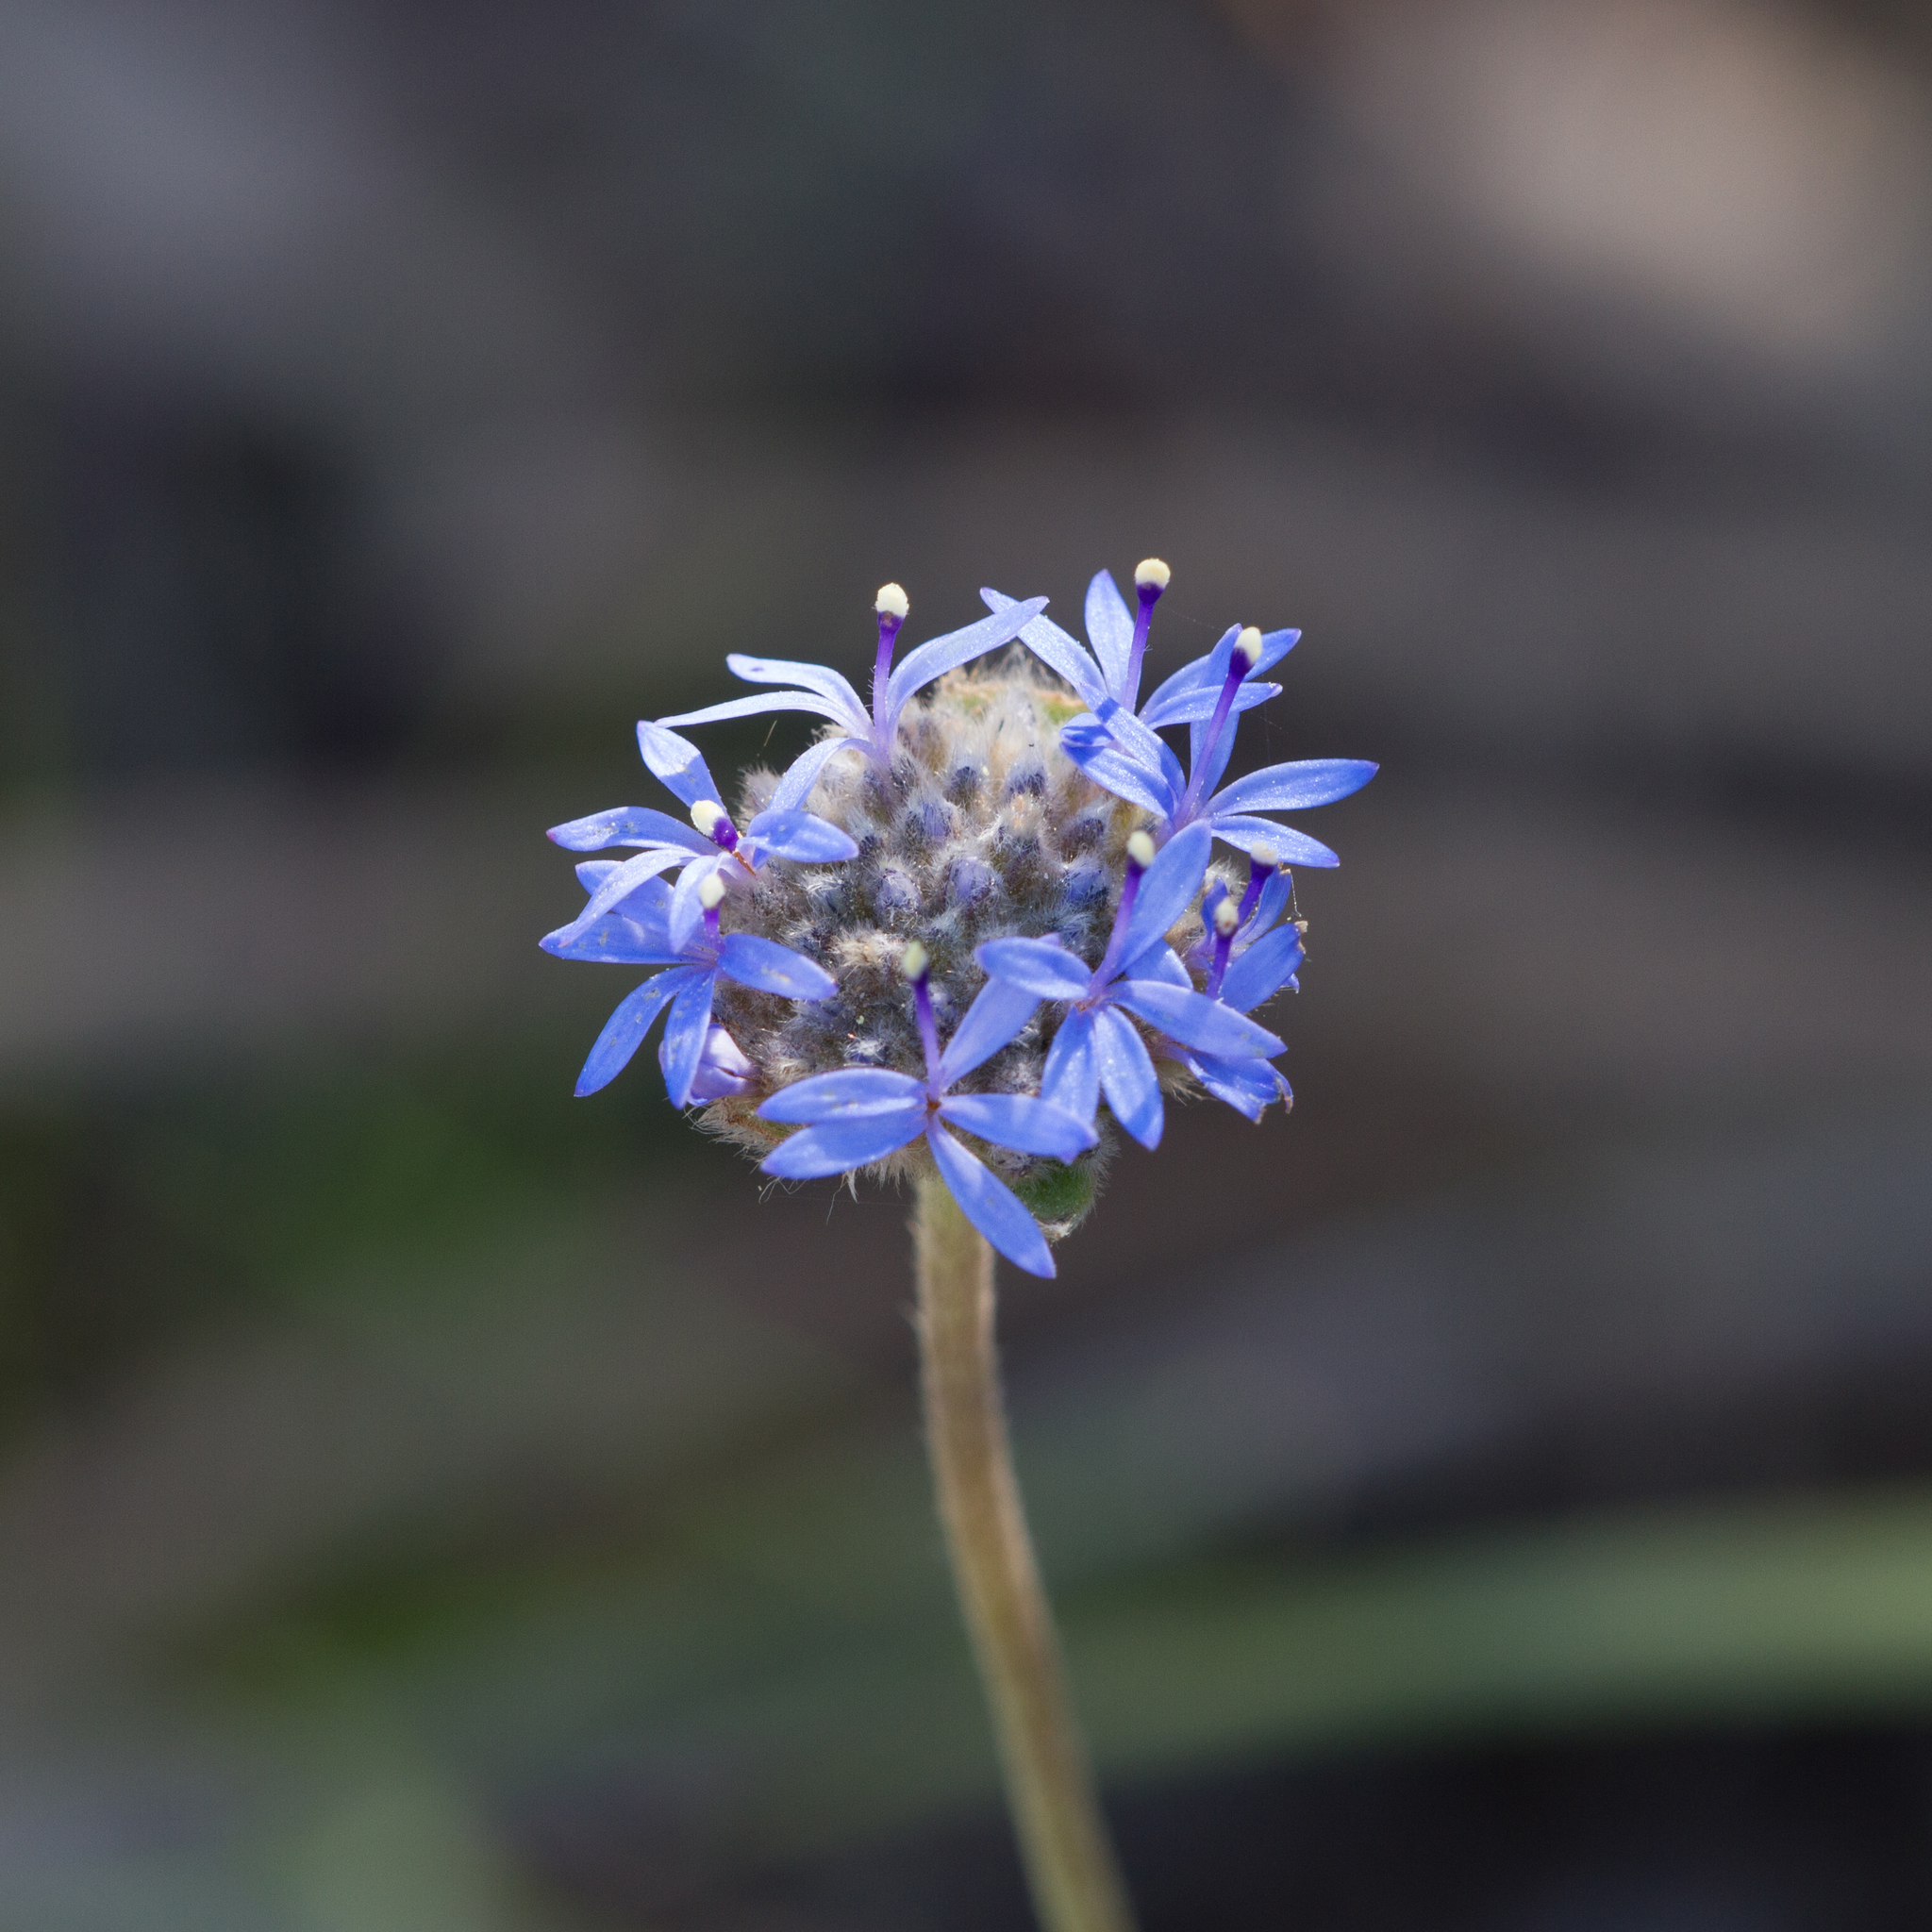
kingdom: Plantae
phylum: Tracheophyta
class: Magnoliopsida
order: Asterales
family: Goodeniaceae
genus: Brunonia
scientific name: Brunonia australis
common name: Blue pincushion
